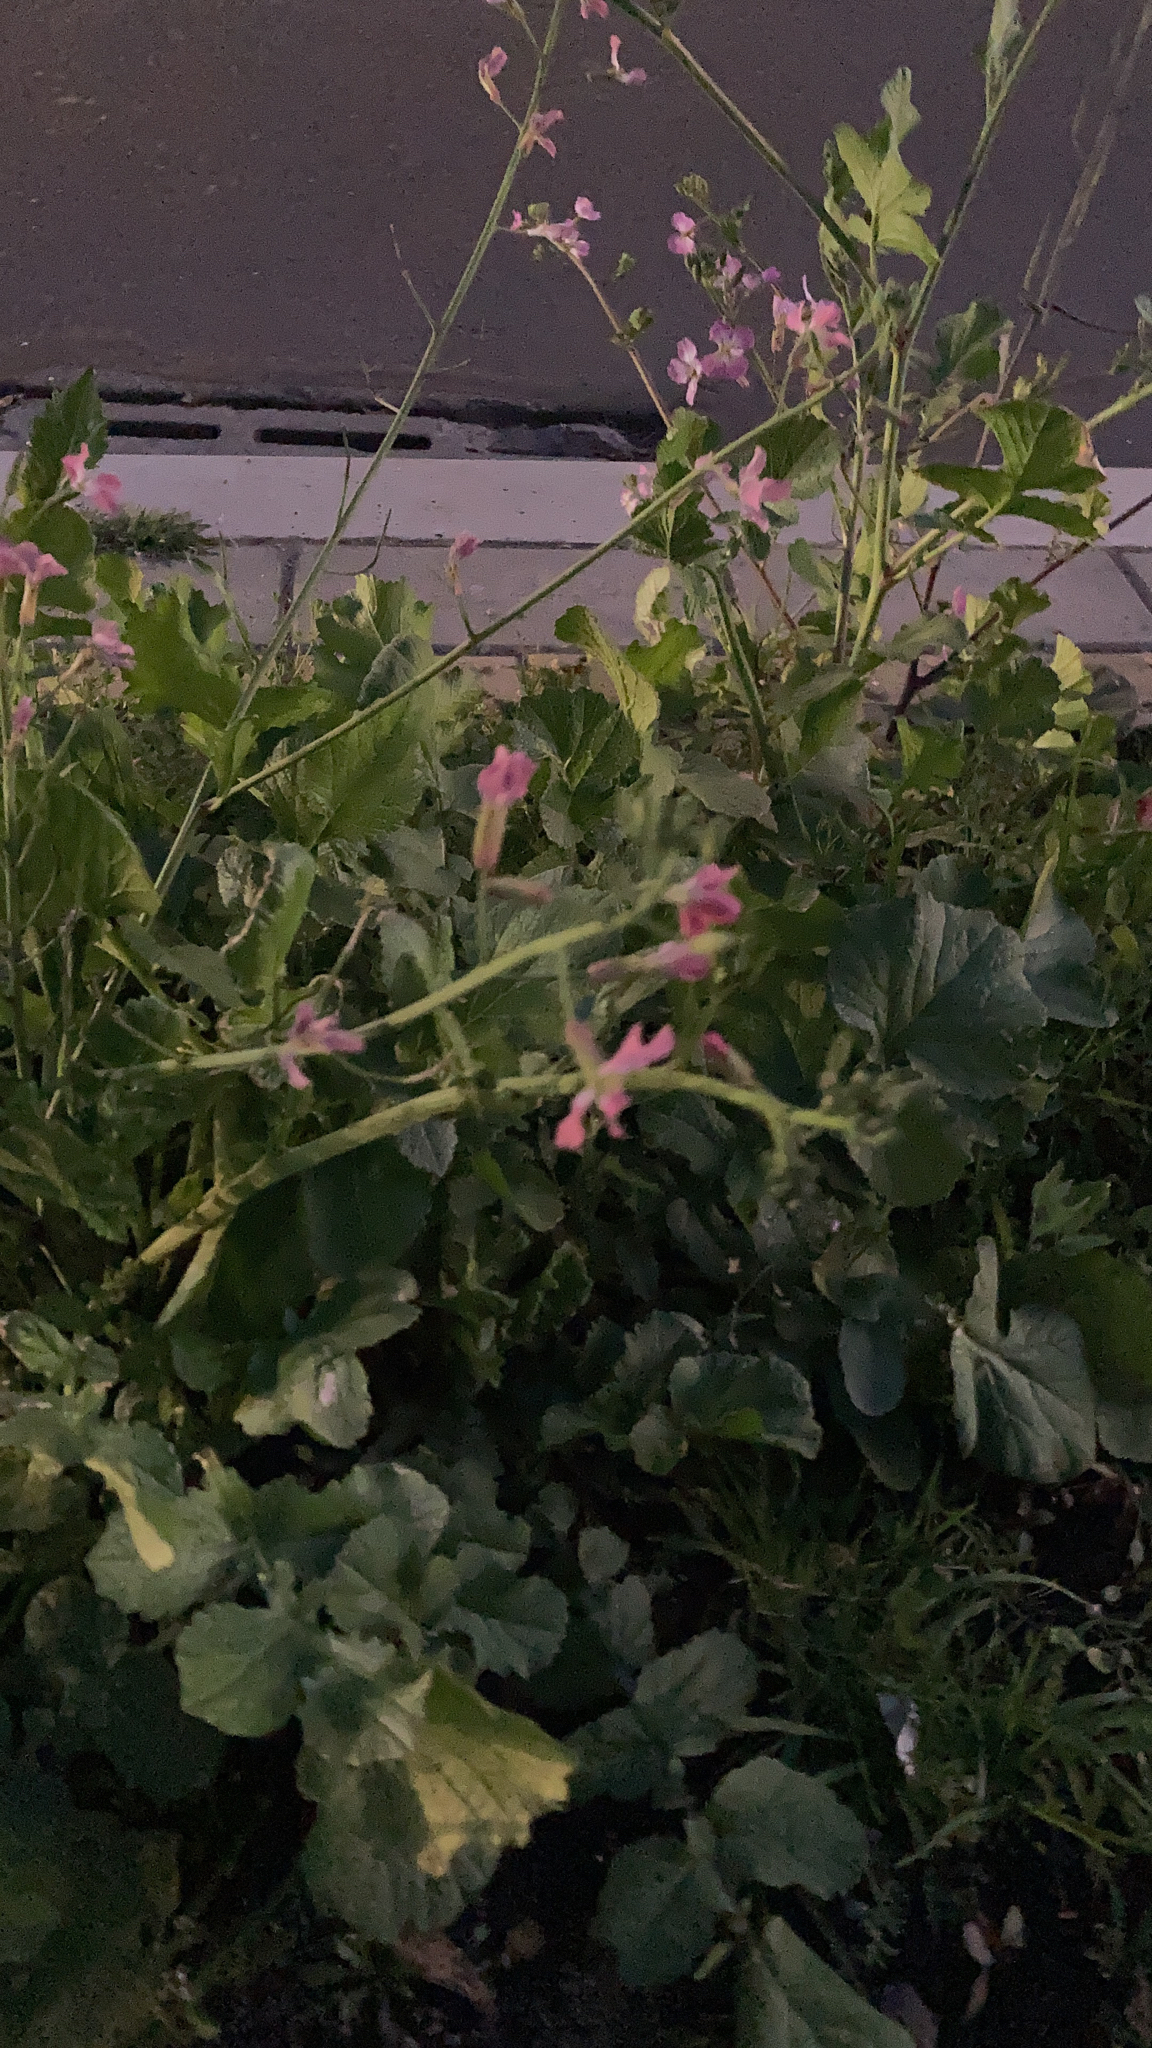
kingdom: Plantae
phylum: Tracheophyta
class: Magnoliopsida
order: Brassicales
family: Brassicaceae
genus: Raphanus
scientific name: Raphanus sativus
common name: Cultivated radish
